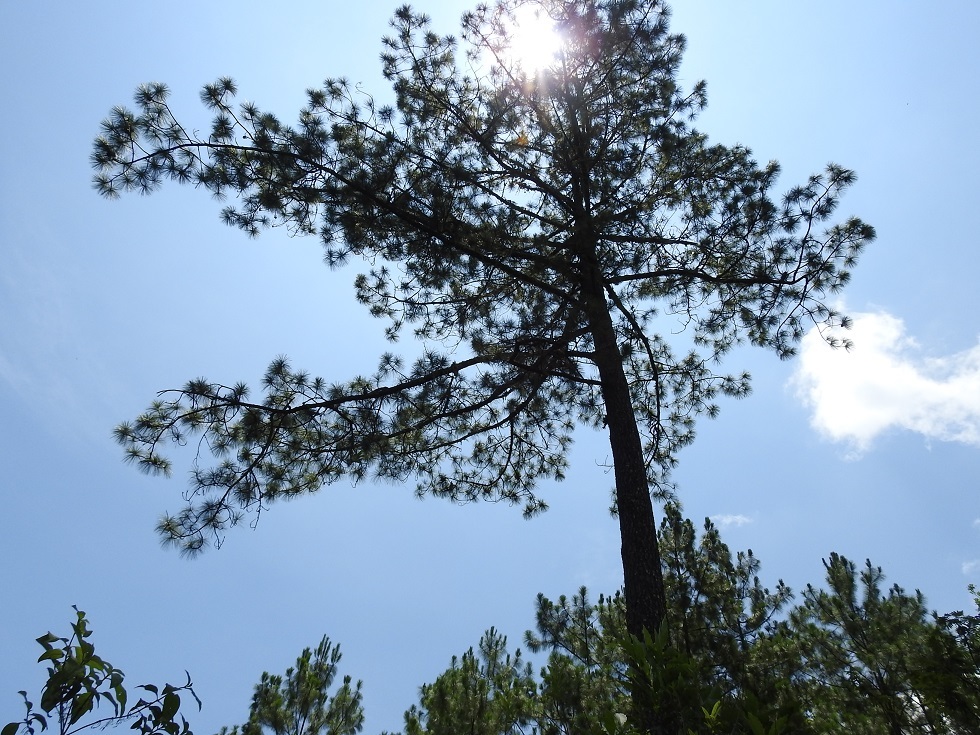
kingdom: Plantae
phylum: Tracheophyta
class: Pinopsida
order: Pinales
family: Pinaceae
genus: Pinus
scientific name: Pinus maximinoi
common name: Thin-leaf pine
